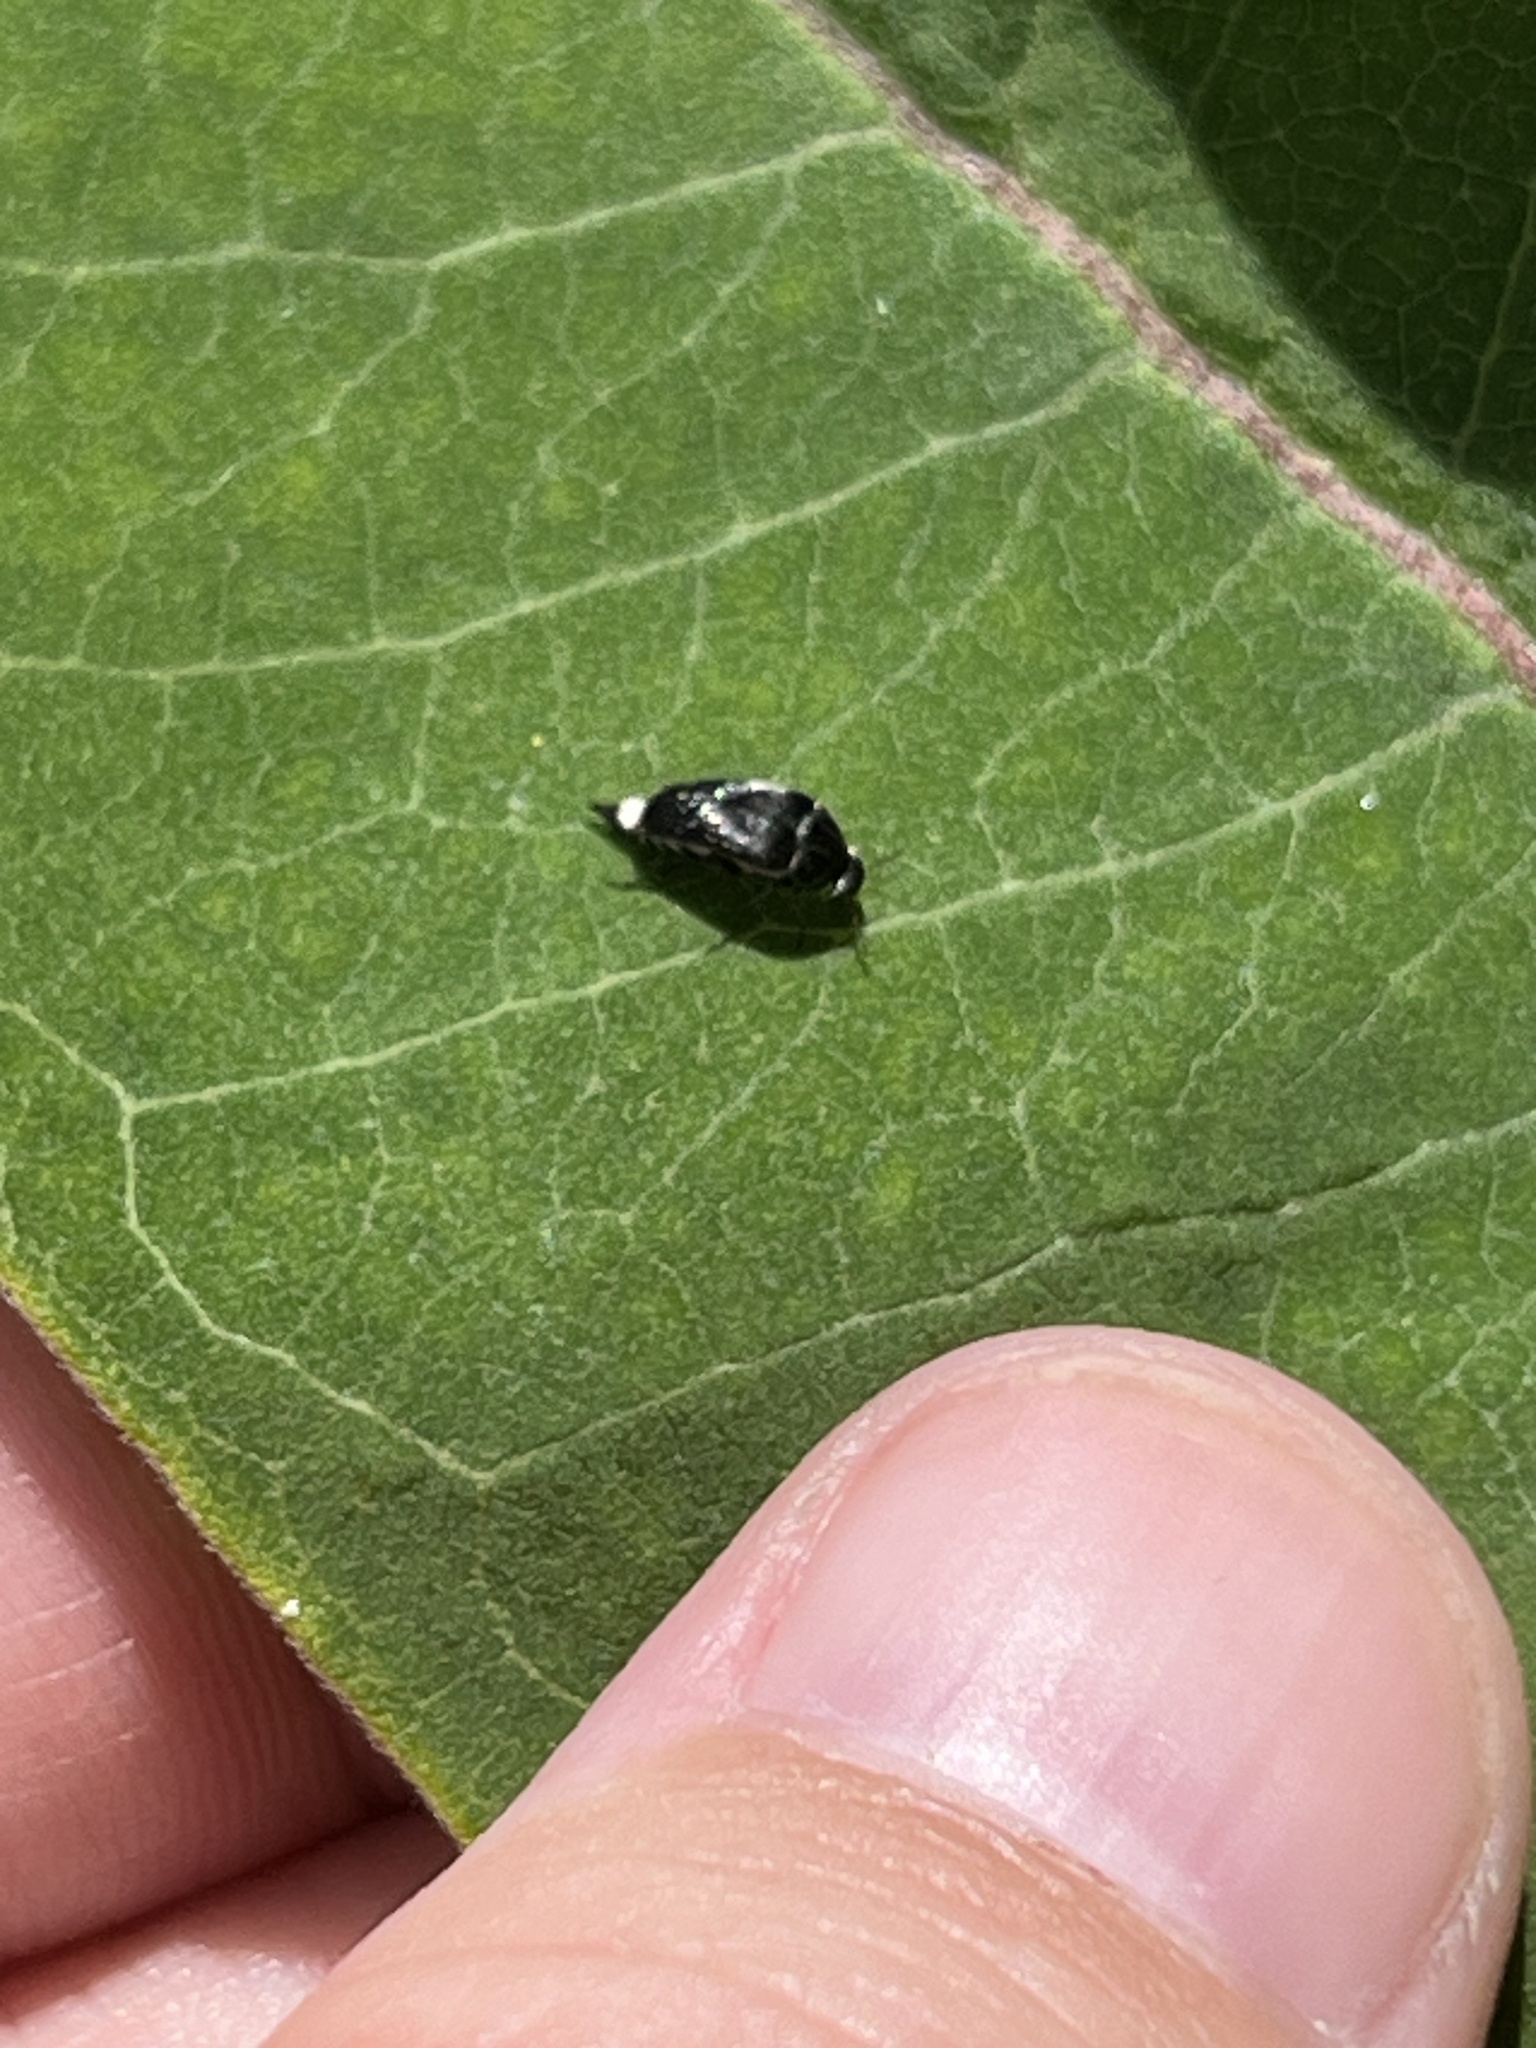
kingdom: Animalia
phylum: Arthropoda
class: Insecta
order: Coleoptera
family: Mordellidae
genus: Mordella
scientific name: Mordella marginata
